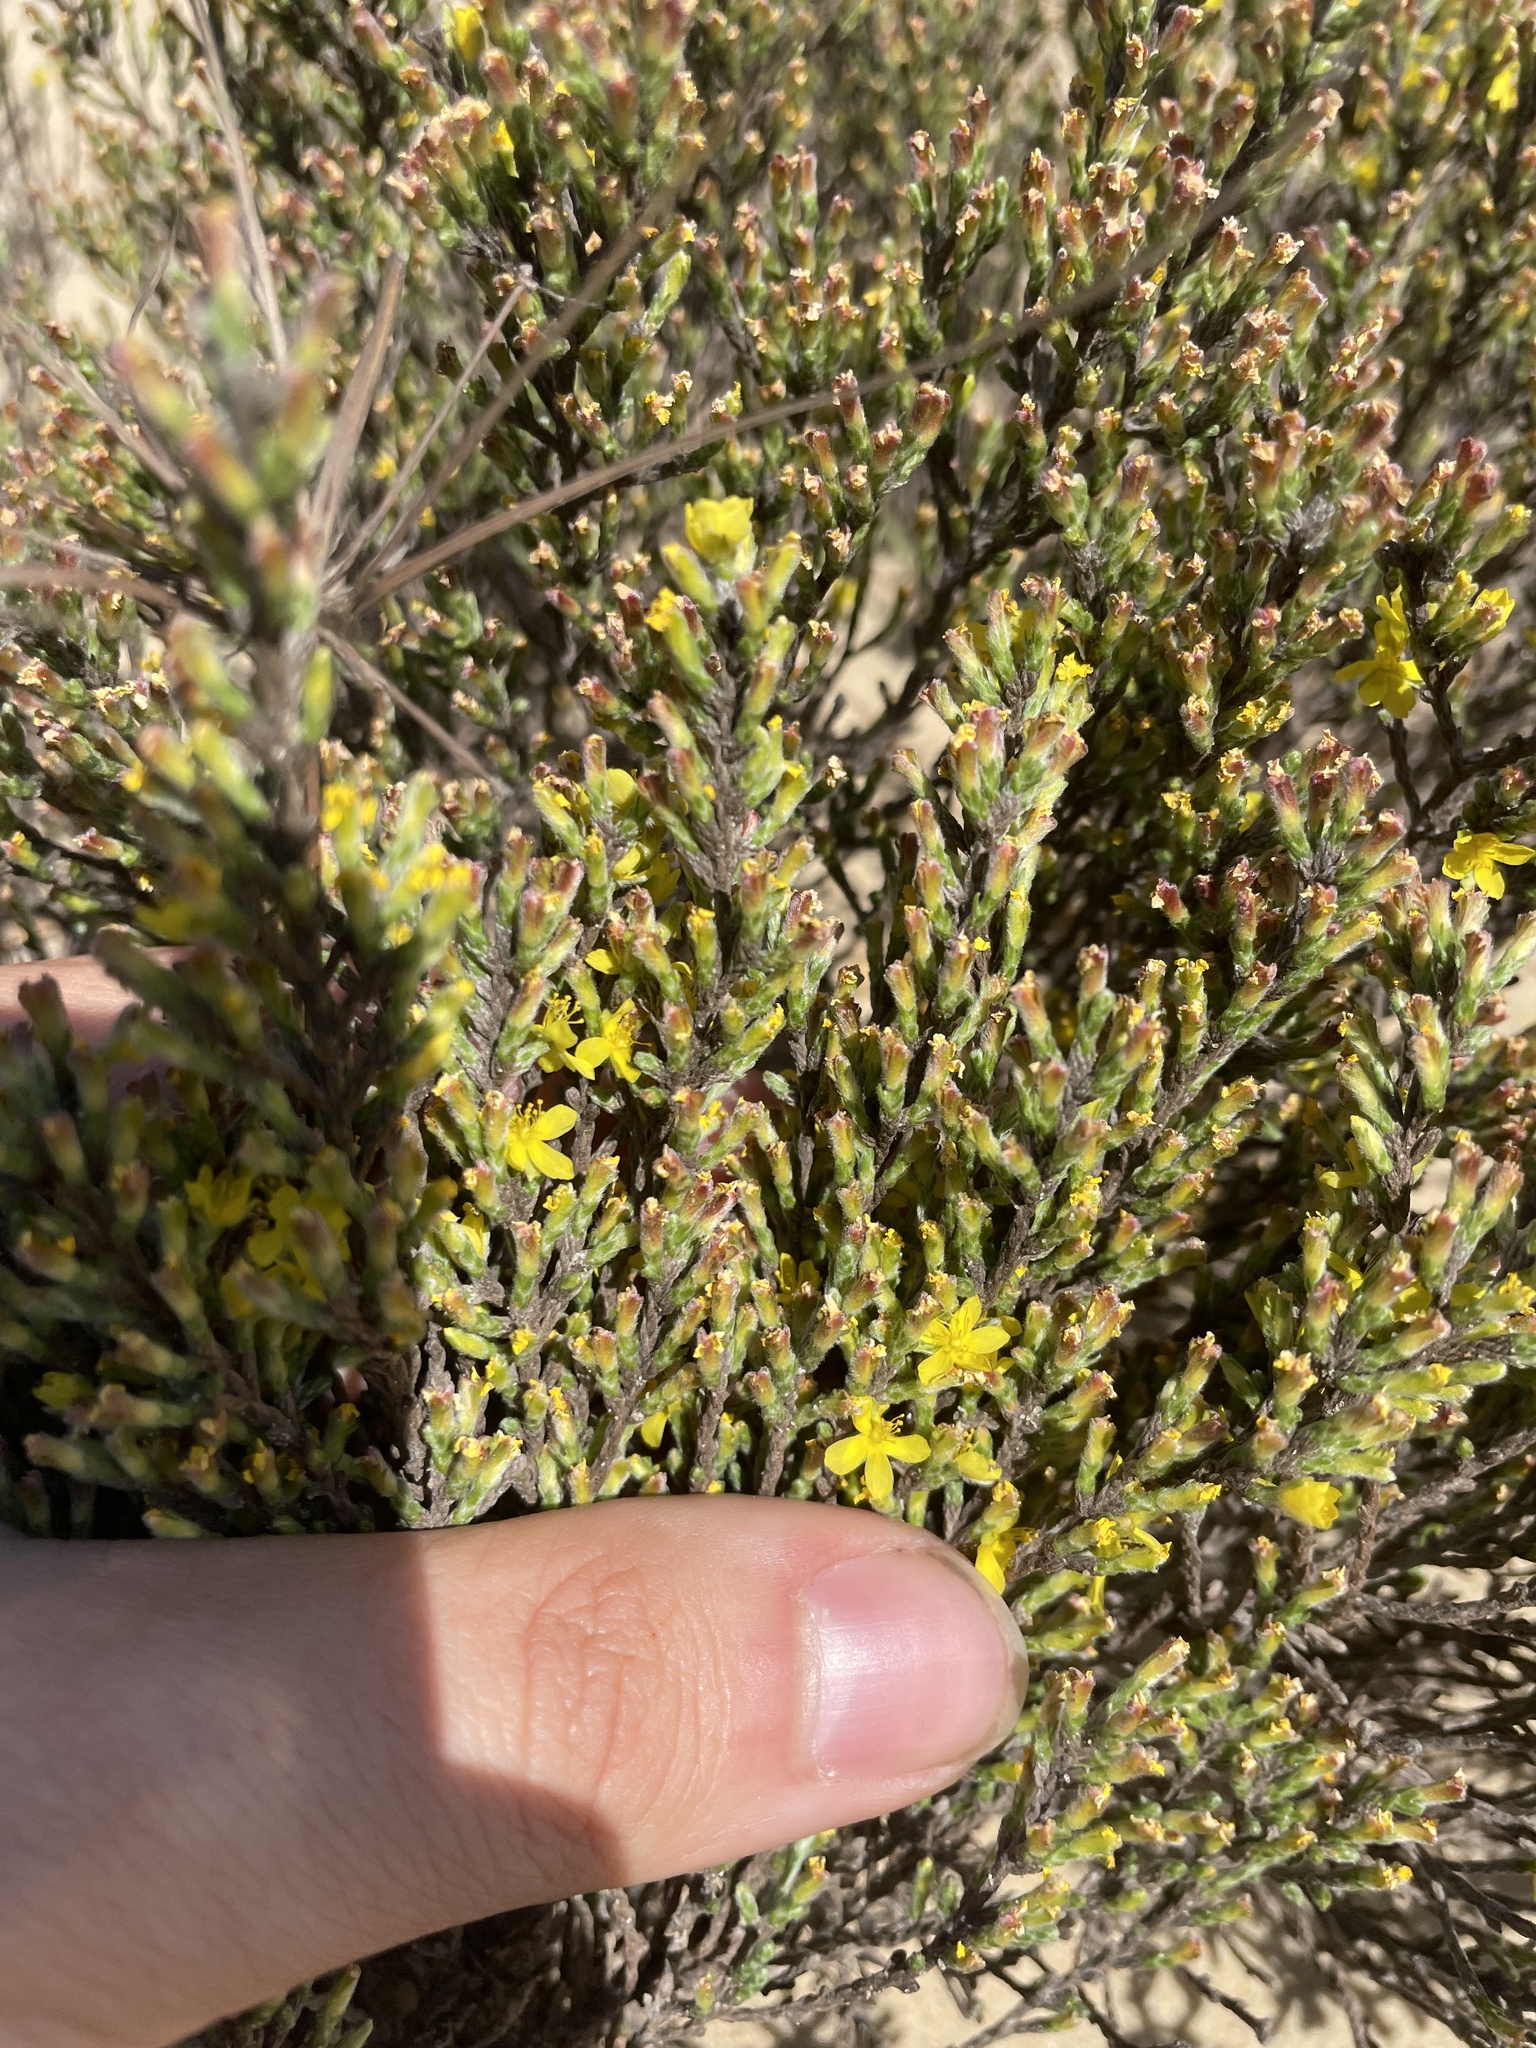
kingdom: Plantae
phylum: Tracheophyta
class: Magnoliopsida
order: Malvales
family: Cistaceae
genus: Hudsonia
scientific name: Hudsonia tomentosa
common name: Beach-heath
